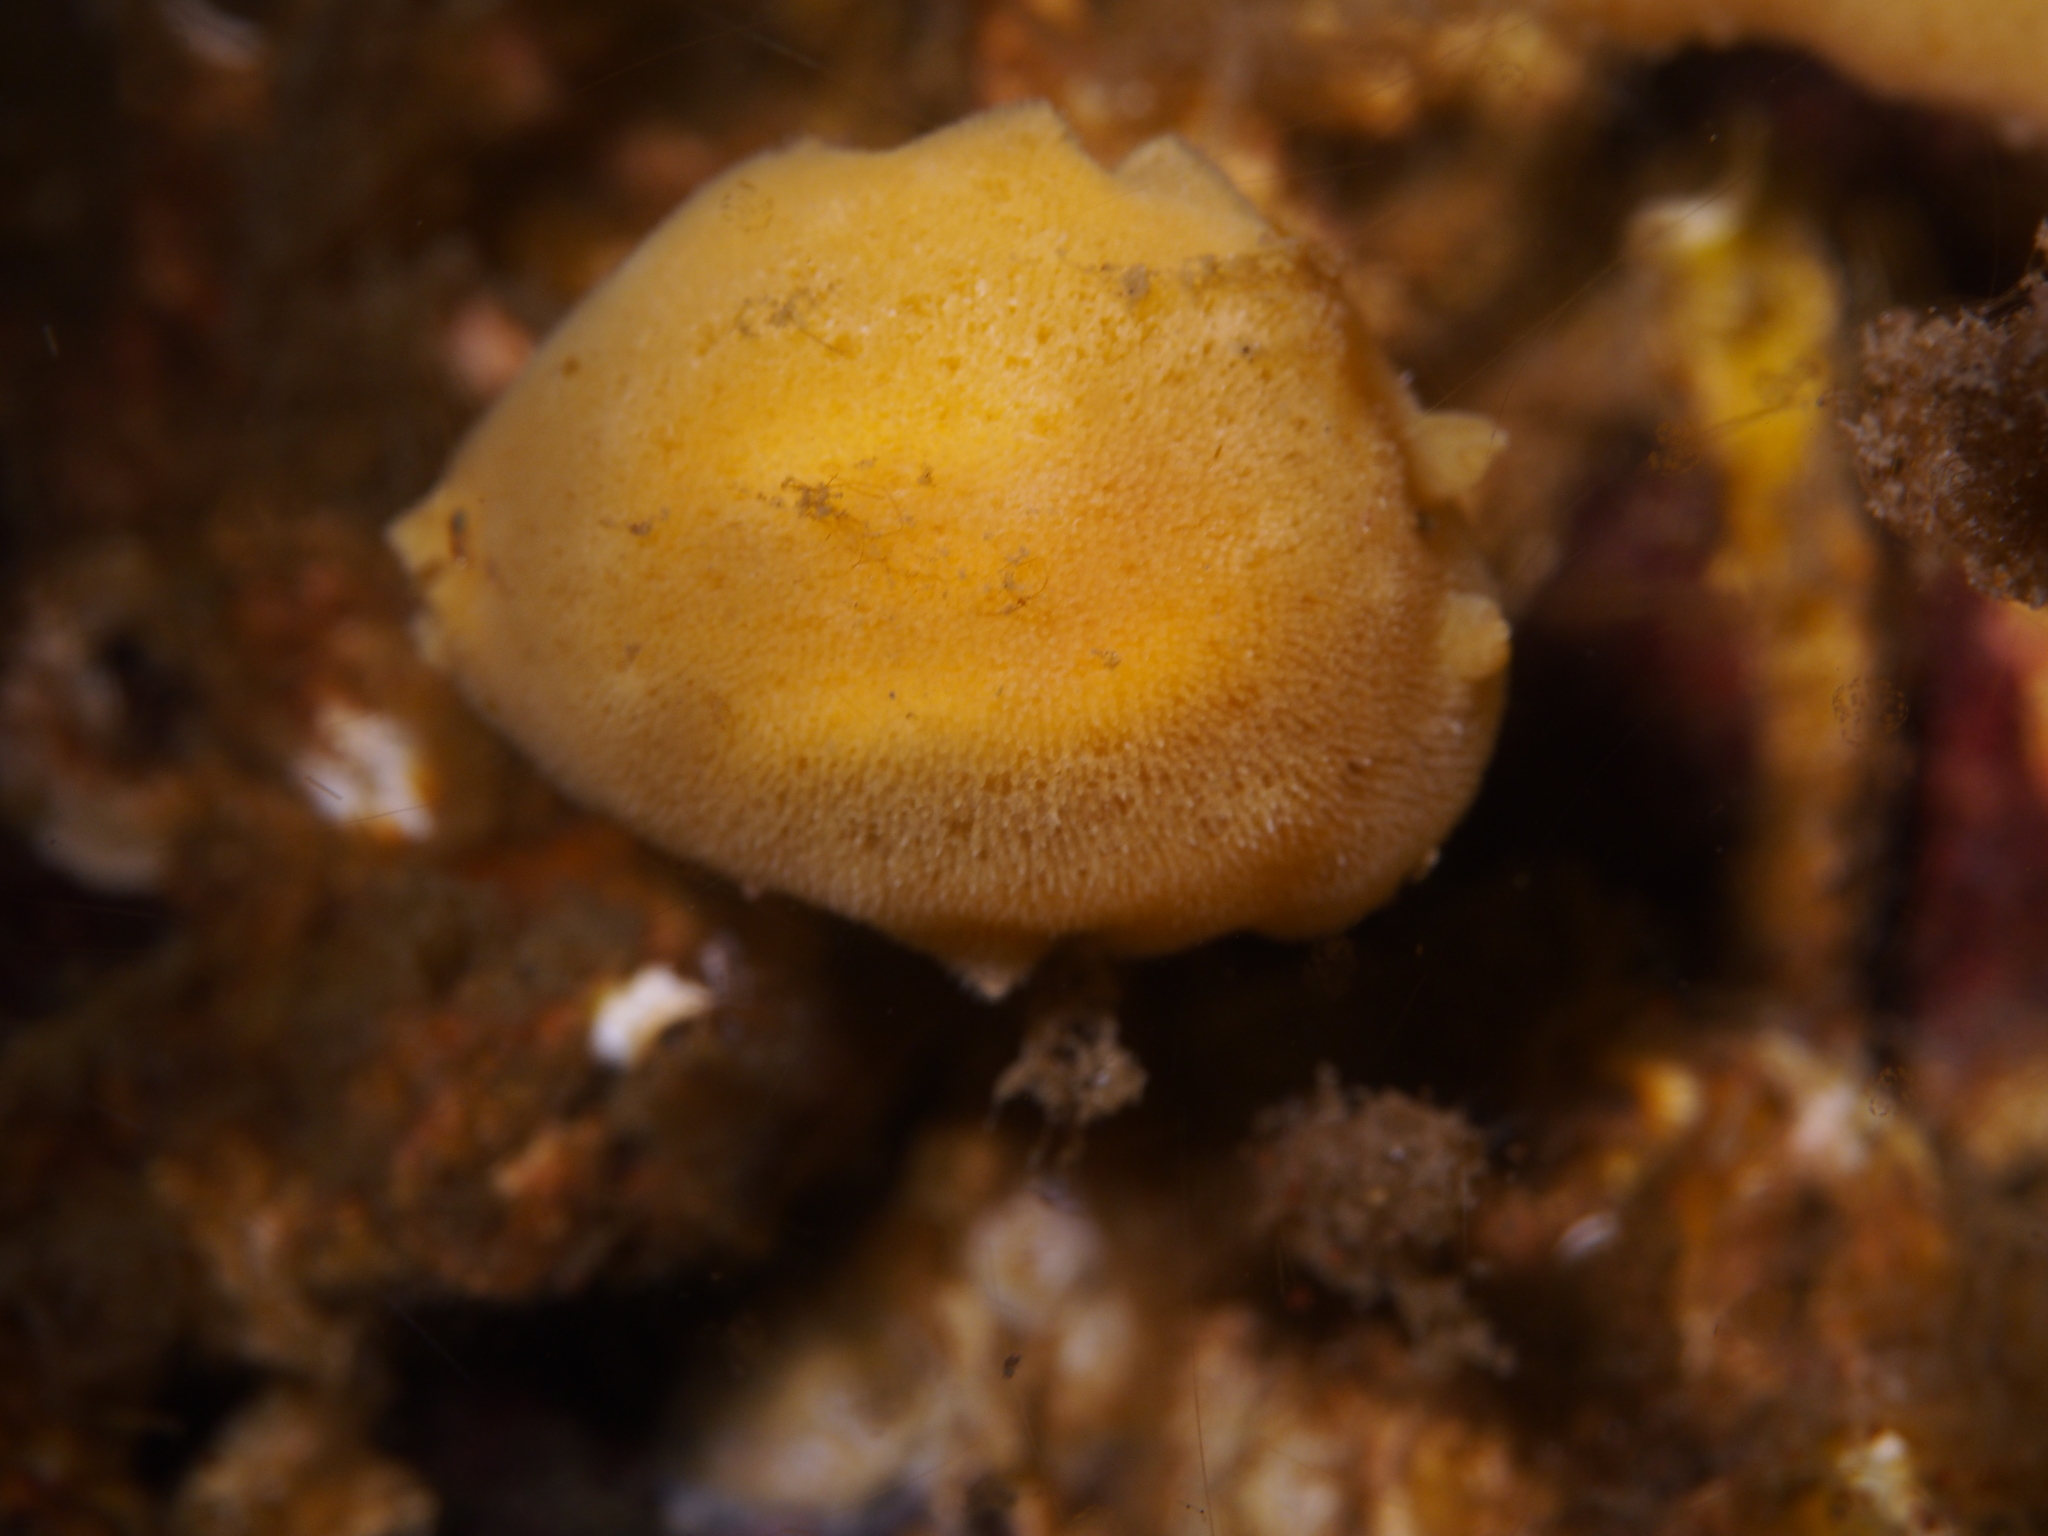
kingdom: Animalia
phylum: Mollusca
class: Gastropoda
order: Nudibranchia
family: Discodorididae
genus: Jorunna
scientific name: Jorunna tomentosa
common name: Grey sea slug
